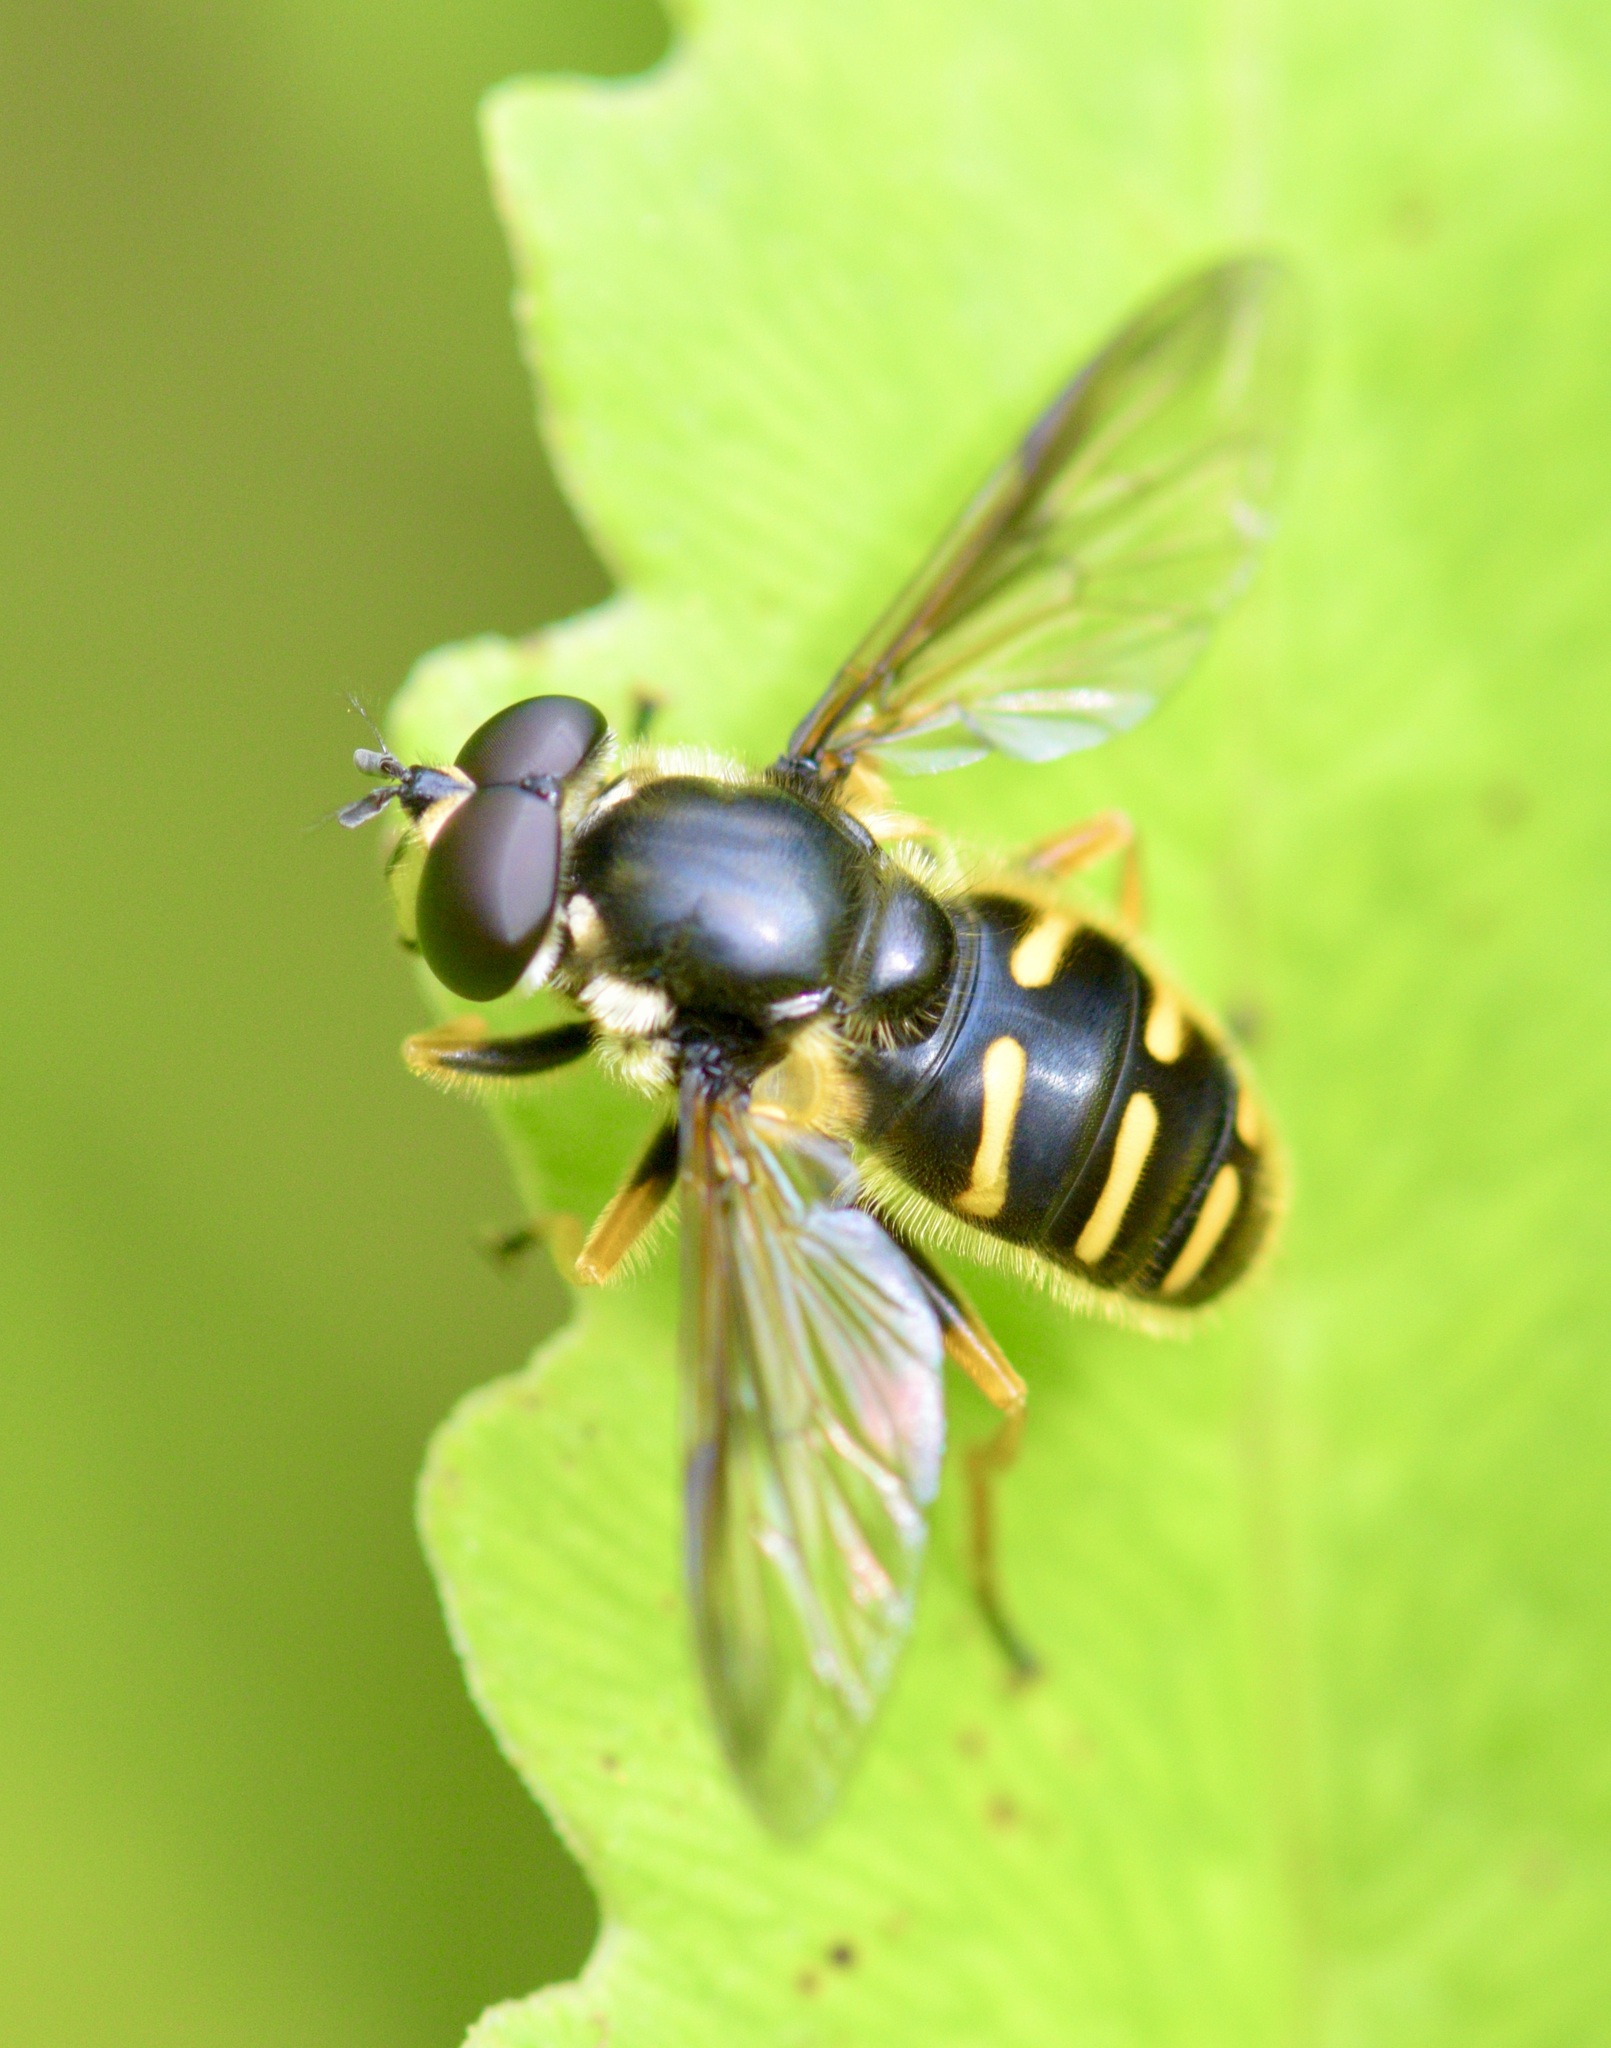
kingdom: Animalia
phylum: Arthropoda
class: Insecta
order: Diptera
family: Syrphidae
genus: Sericomyia
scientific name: Sericomyia chrysotoxoides
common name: Oblique-banded pond fly
